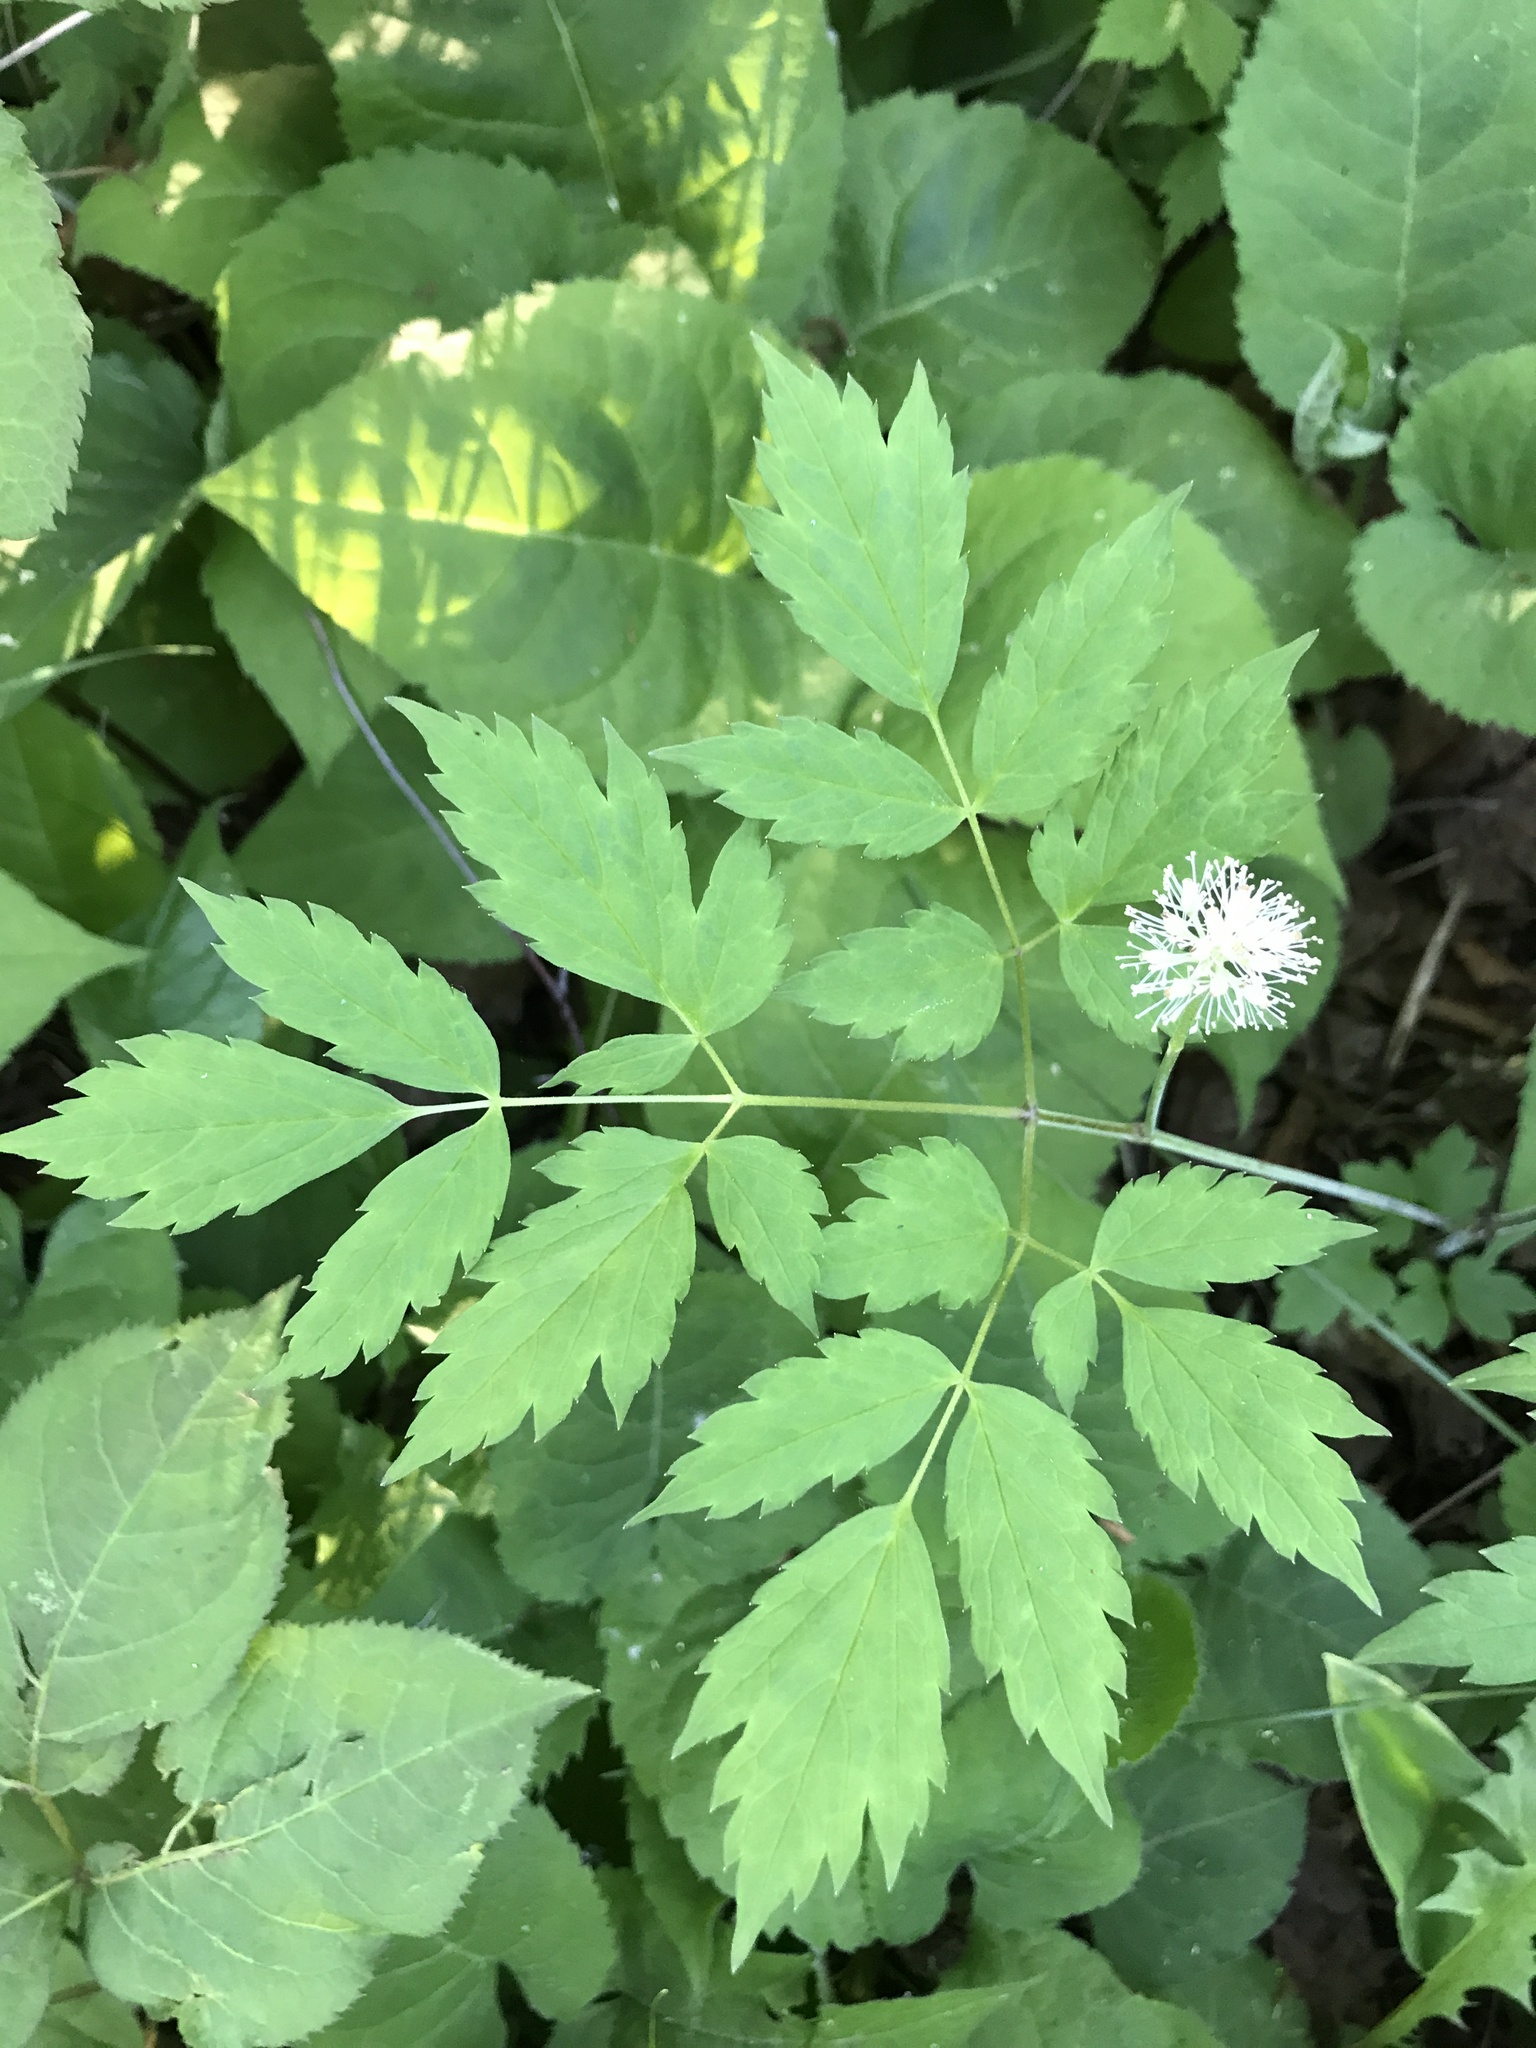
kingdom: Plantae
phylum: Tracheophyta
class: Magnoliopsida
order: Ranunculales
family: Ranunculaceae
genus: Actaea
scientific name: Actaea rubra
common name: Red baneberry
